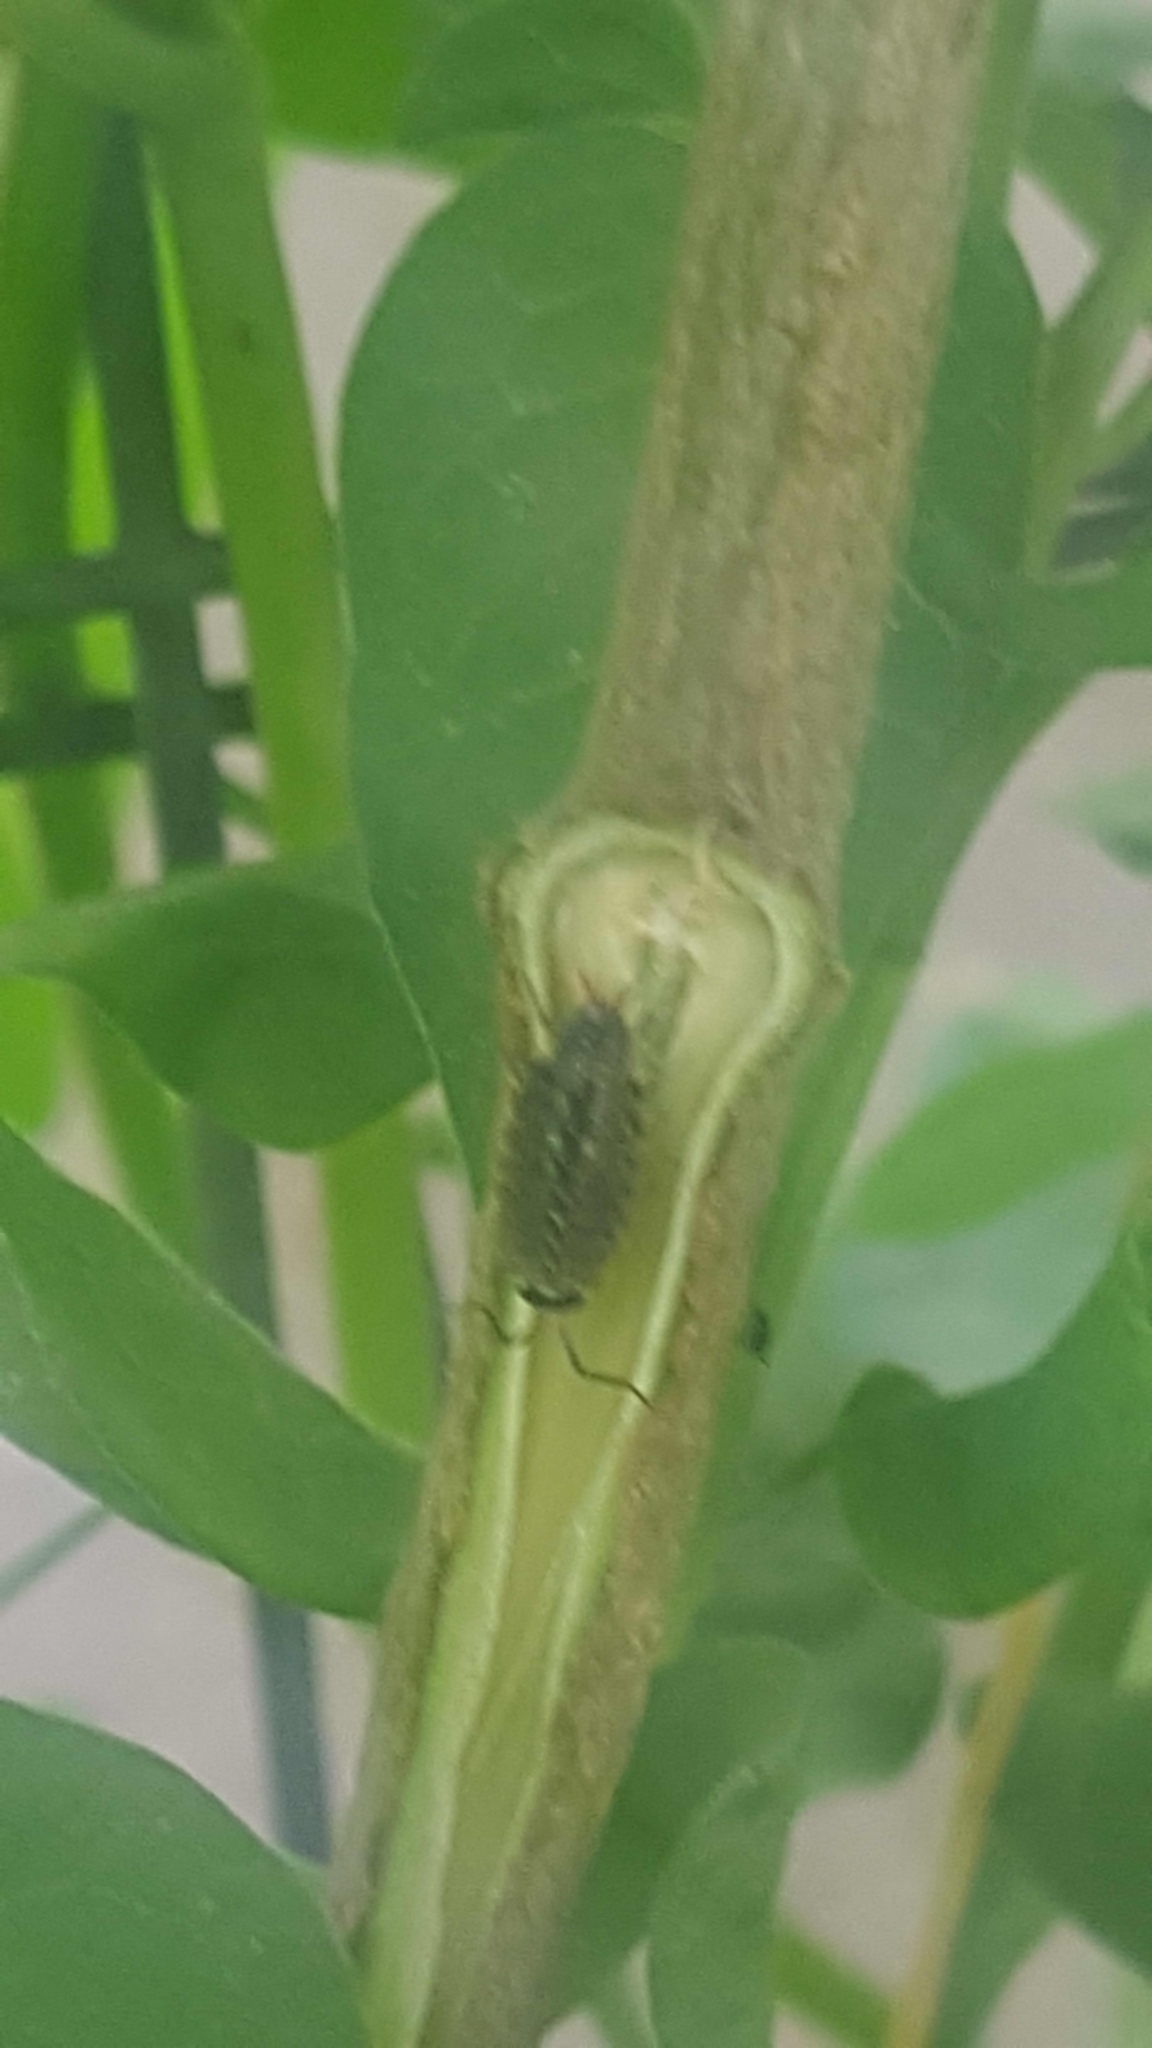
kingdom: Animalia
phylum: Arthropoda
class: Malacostraca
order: Isopoda
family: Philosciidae
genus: Philoscia
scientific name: Philoscia muscorum
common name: Common striped woodlouse
